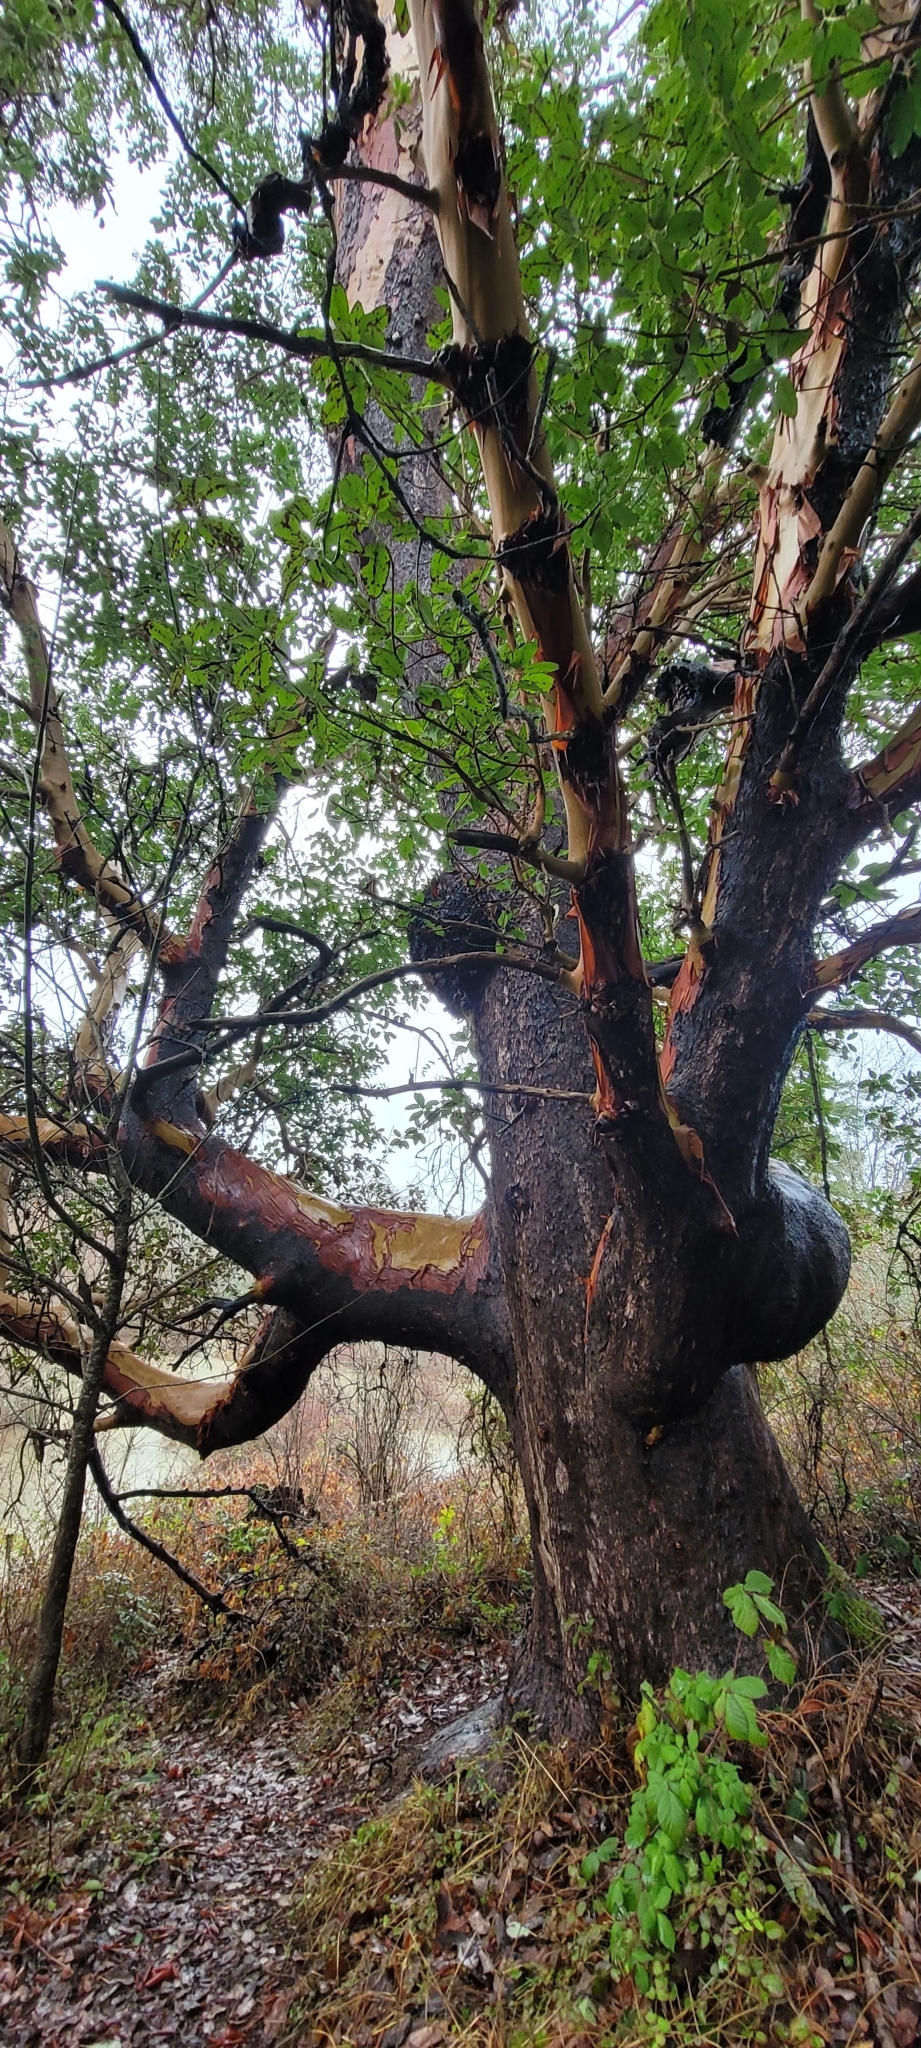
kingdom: Plantae
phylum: Tracheophyta
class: Magnoliopsida
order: Ericales
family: Ericaceae
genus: Arbutus
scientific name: Arbutus menziesii
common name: Pacific madrone
